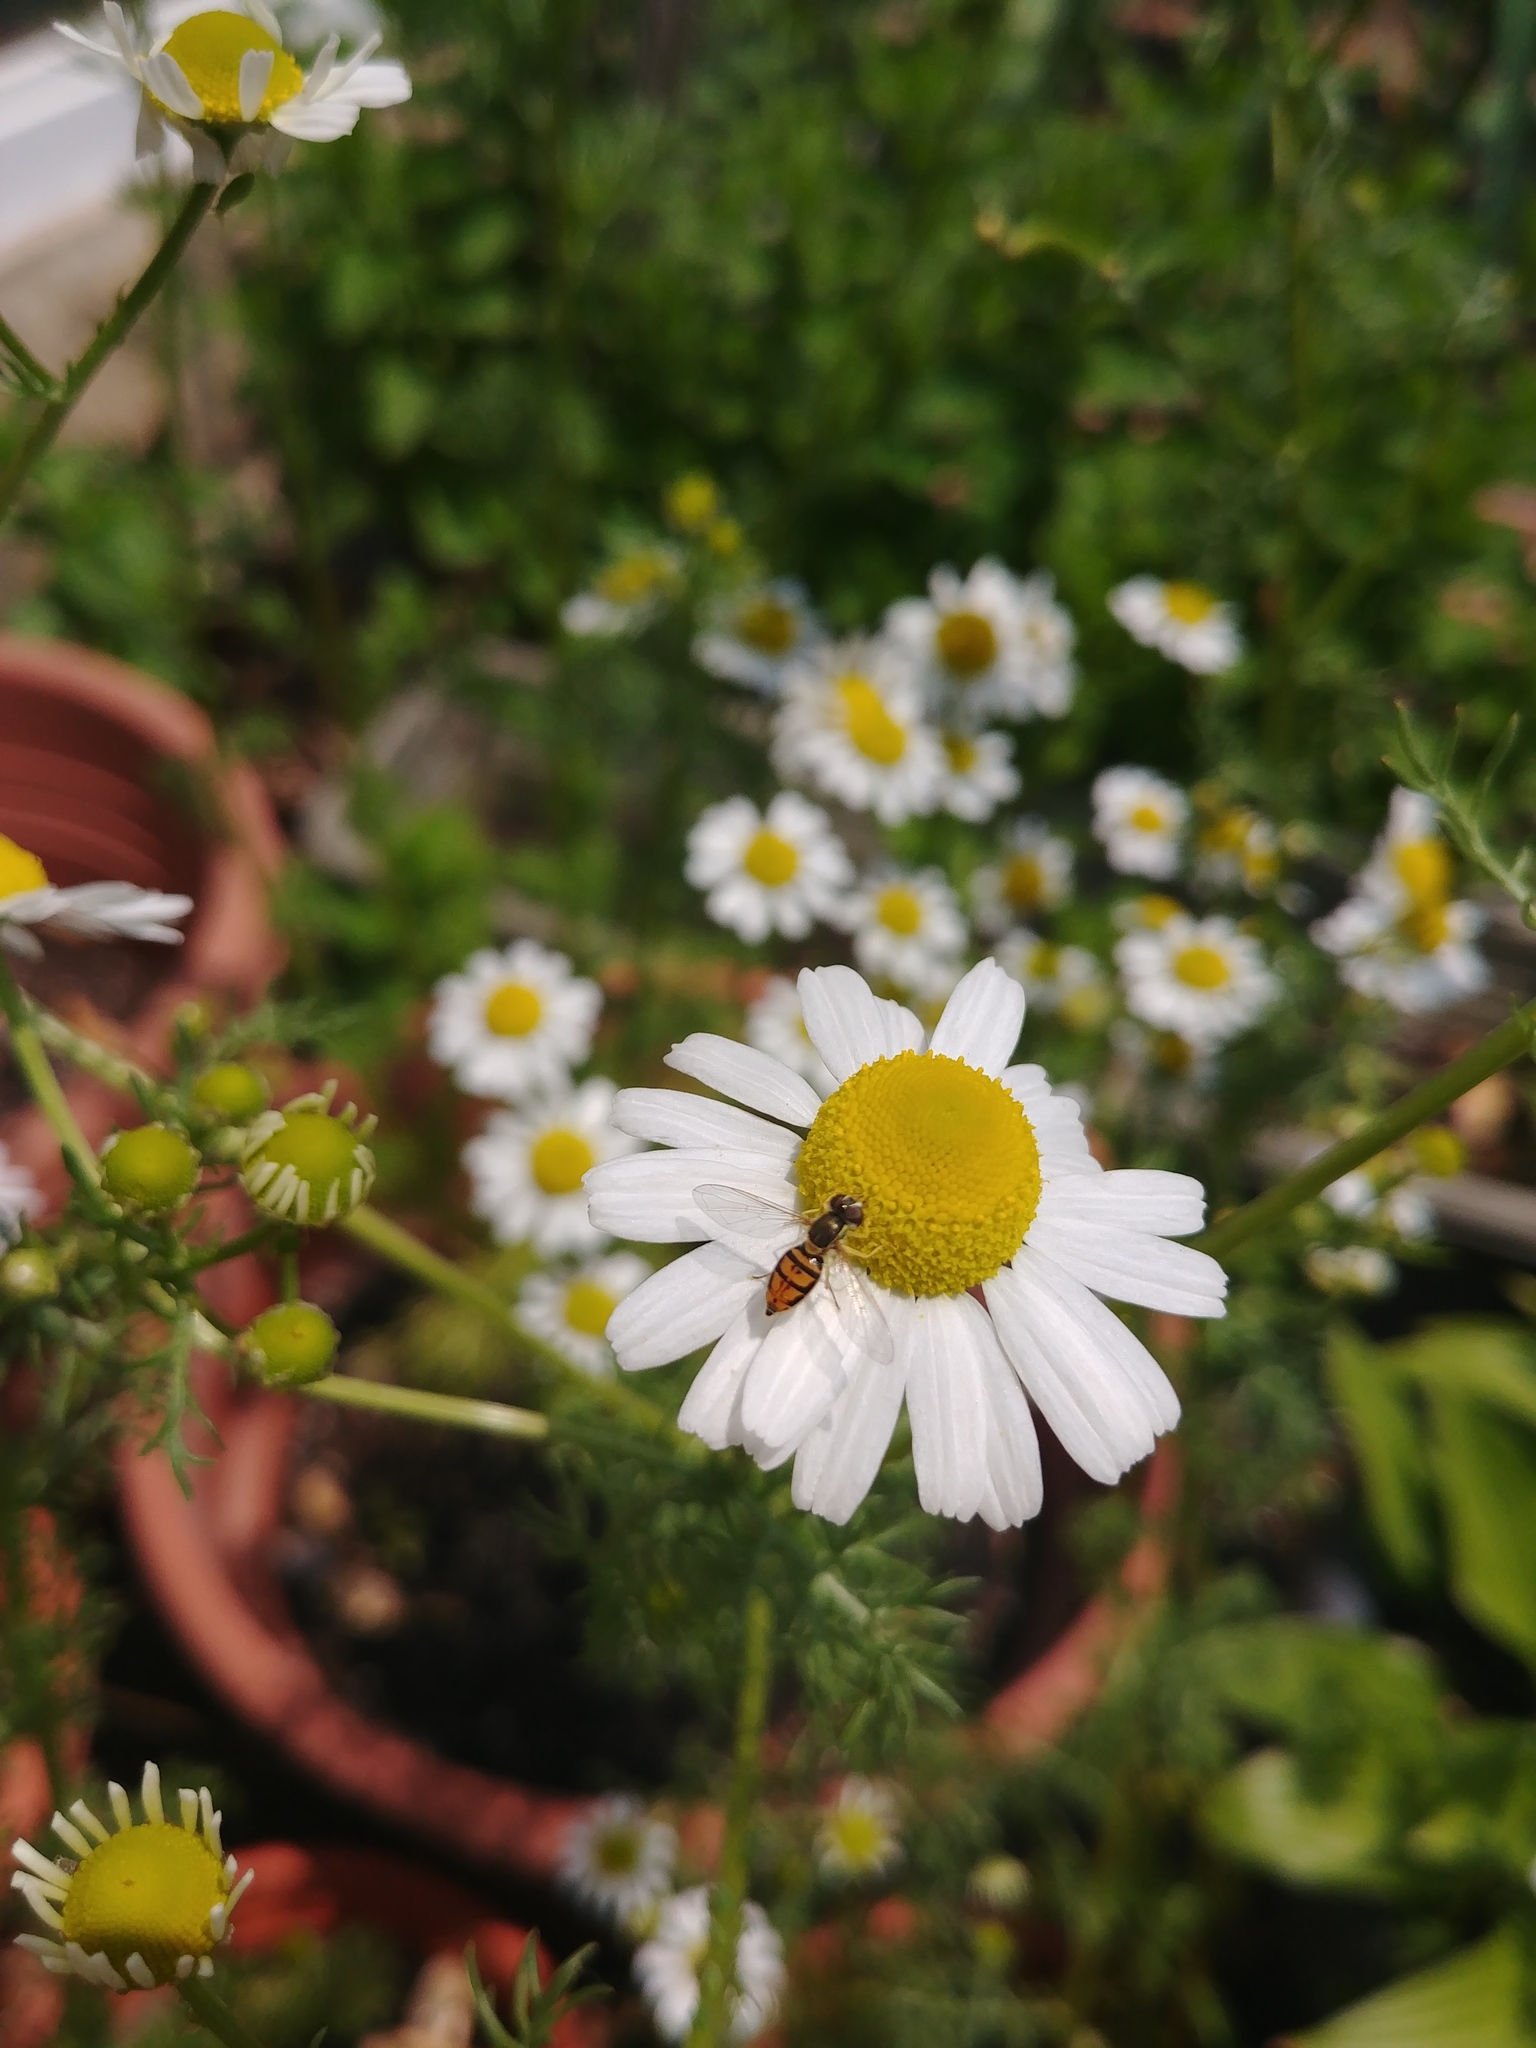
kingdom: Animalia
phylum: Arthropoda
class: Insecta
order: Diptera
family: Syrphidae
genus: Toxomerus
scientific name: Toxomerus marginatus
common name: Syrphid fly
